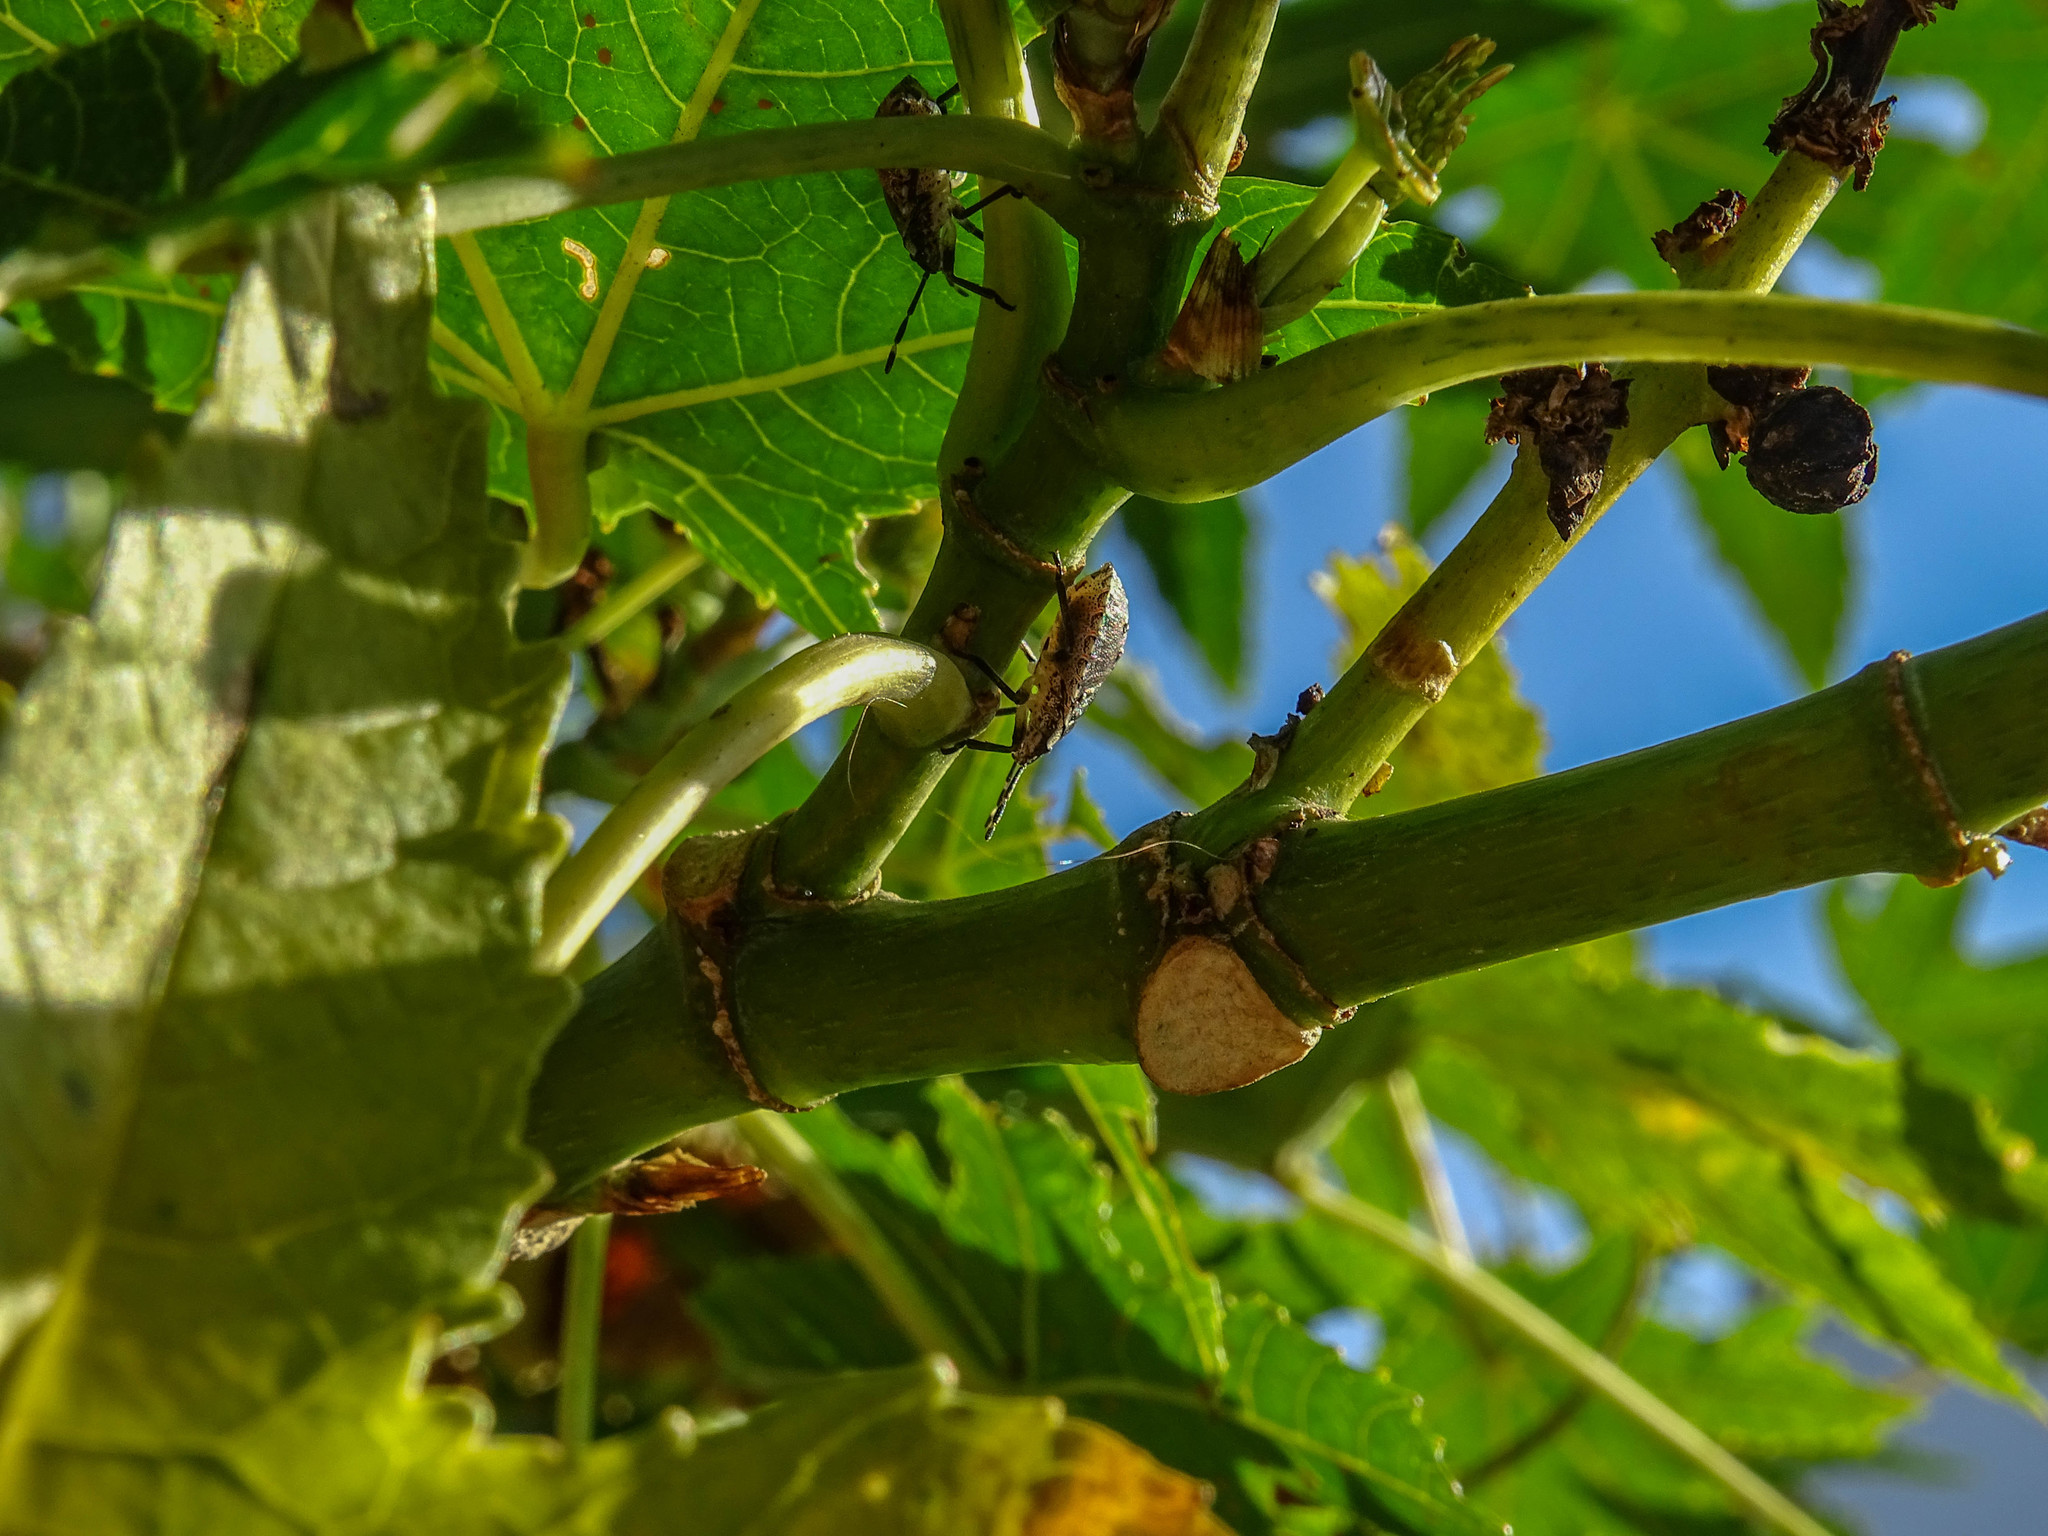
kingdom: Animalia
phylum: Arthropoda
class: Insecta
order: Hemiptera
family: Pentatomidae
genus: Rhaphigaster
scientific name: Rhaphigaster nebulosa
